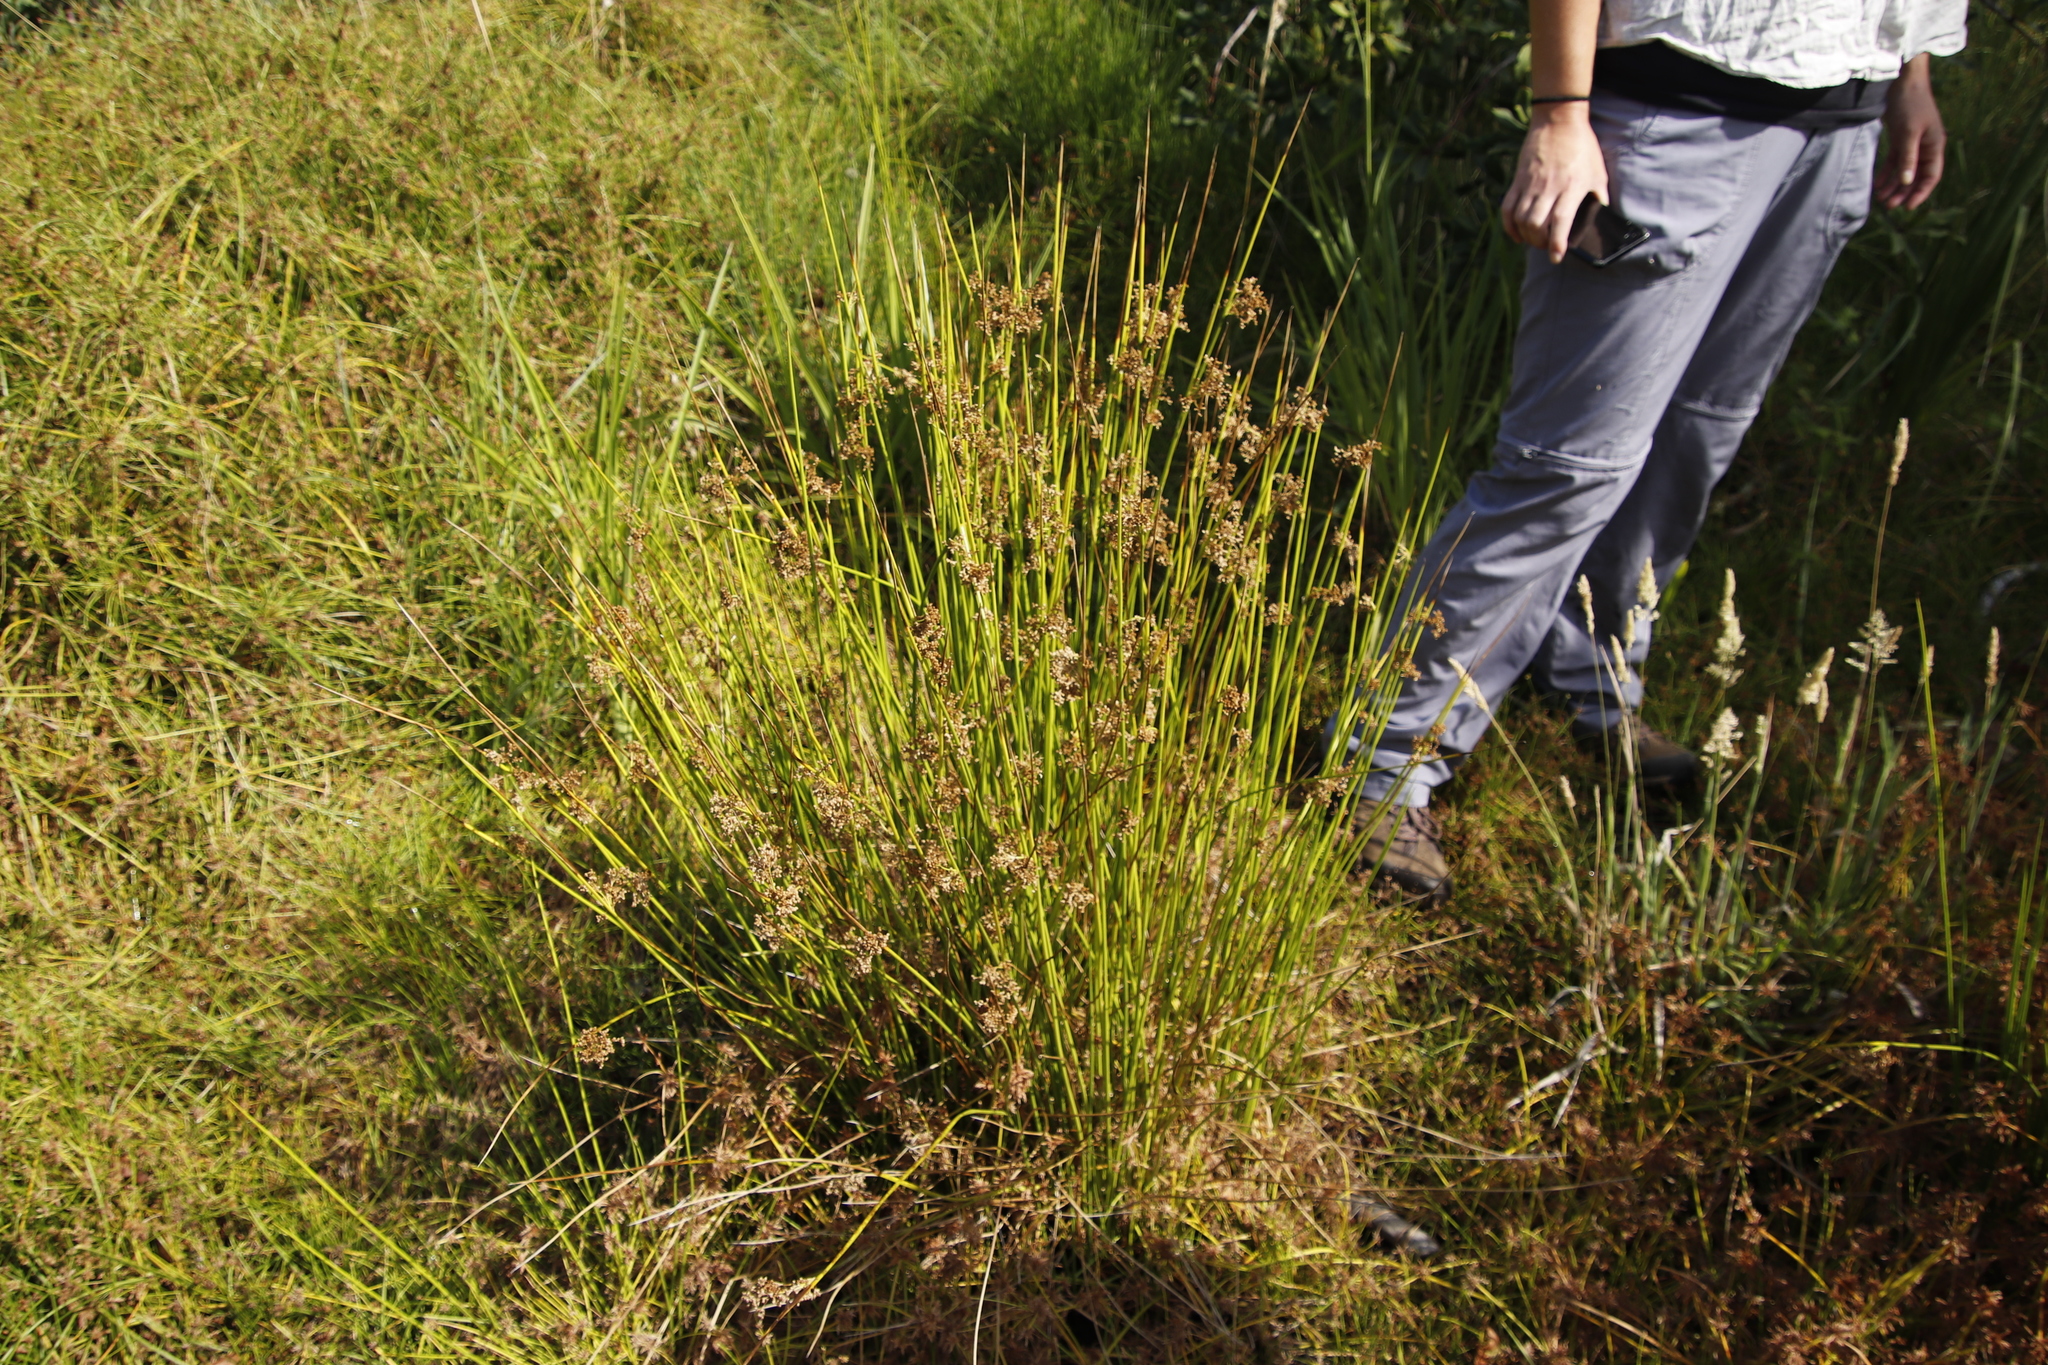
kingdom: Plantae
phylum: Tracheophyta
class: Liliopsida
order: Poales
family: Juncaceae
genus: Juncus
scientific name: Juncus effusus
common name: Soft rush
